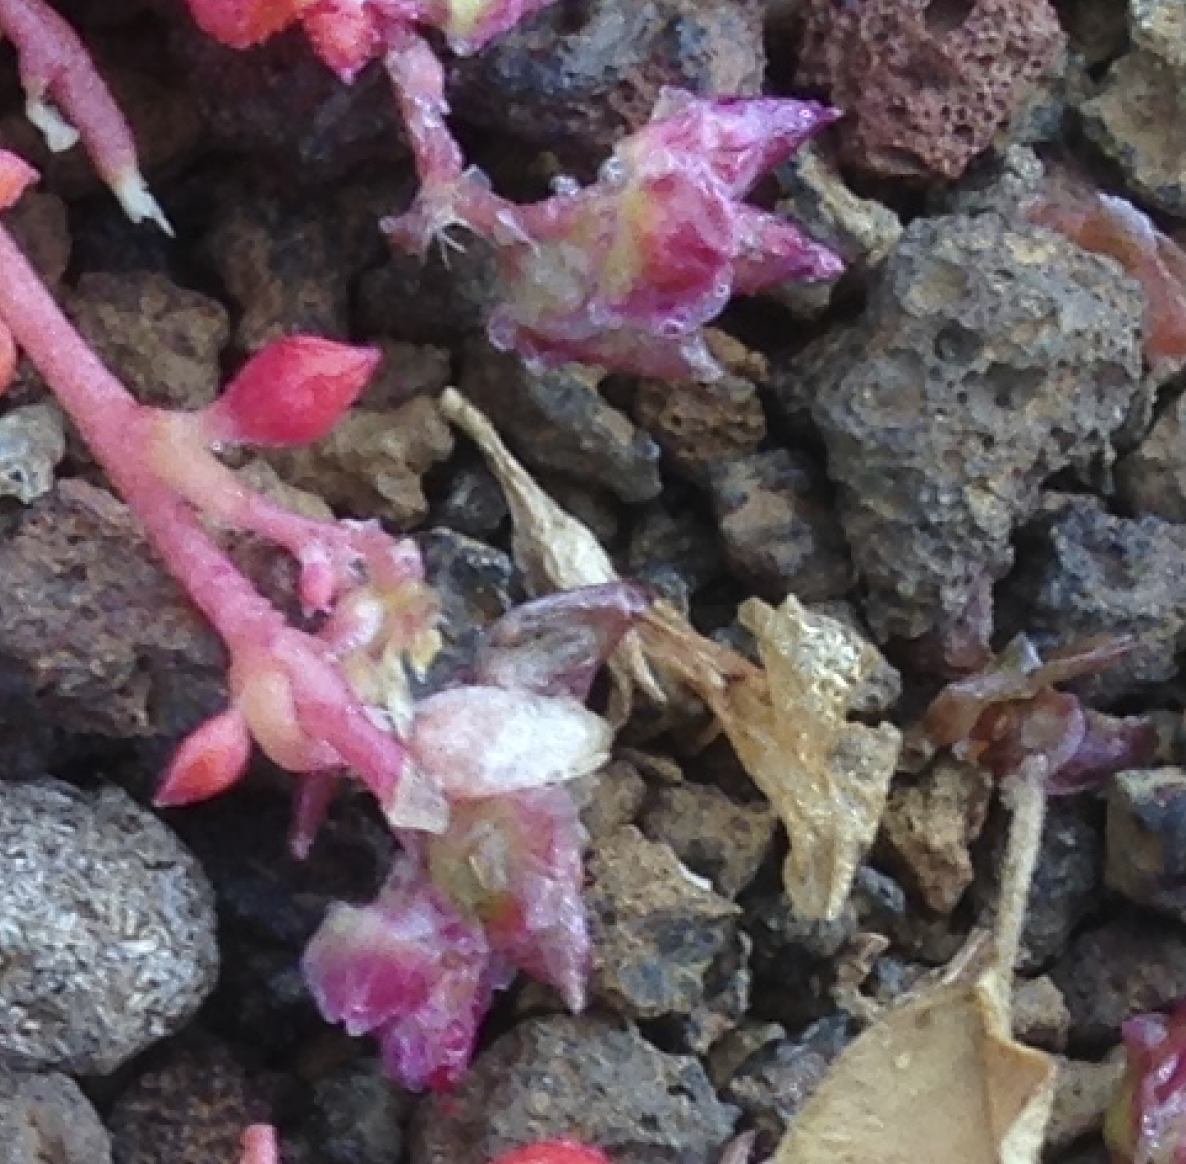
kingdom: Plantae
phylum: Tracheophyta
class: Magnoliopsida
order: Caryophyllales
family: Montiaceae
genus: Calyptridium
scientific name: Calyptridium arizonicum
